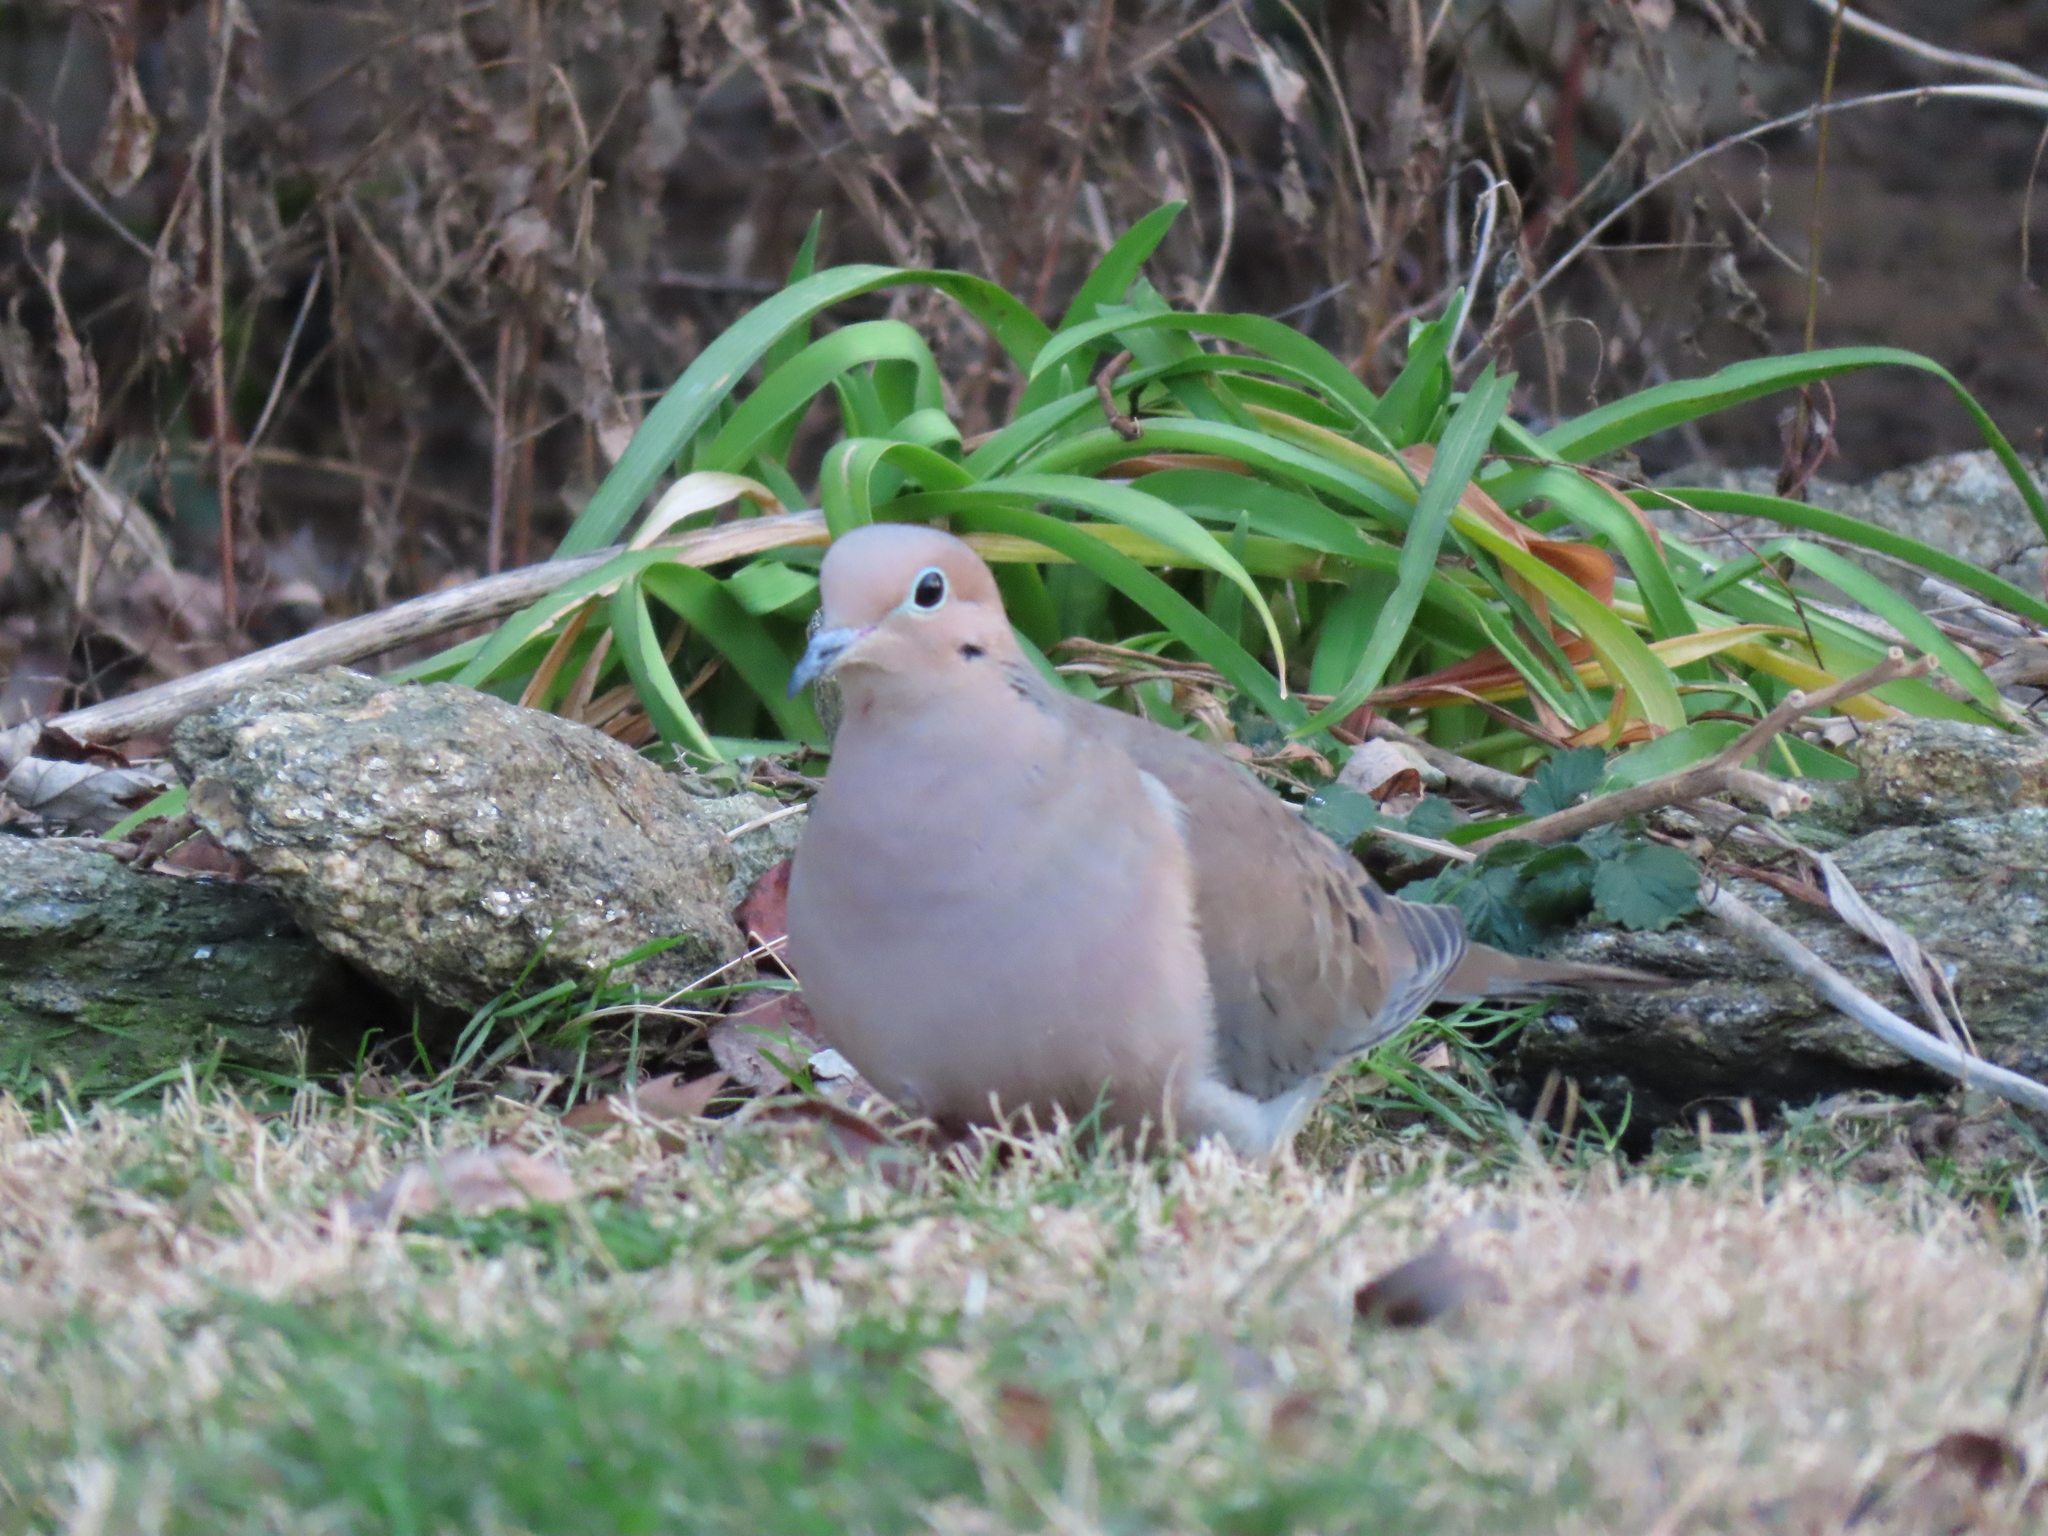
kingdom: Animalia
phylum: Chordata
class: Aves
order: Columbiformes
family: Columbidae
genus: Zenaida
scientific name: Zenaida macroura
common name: Mourning dove
